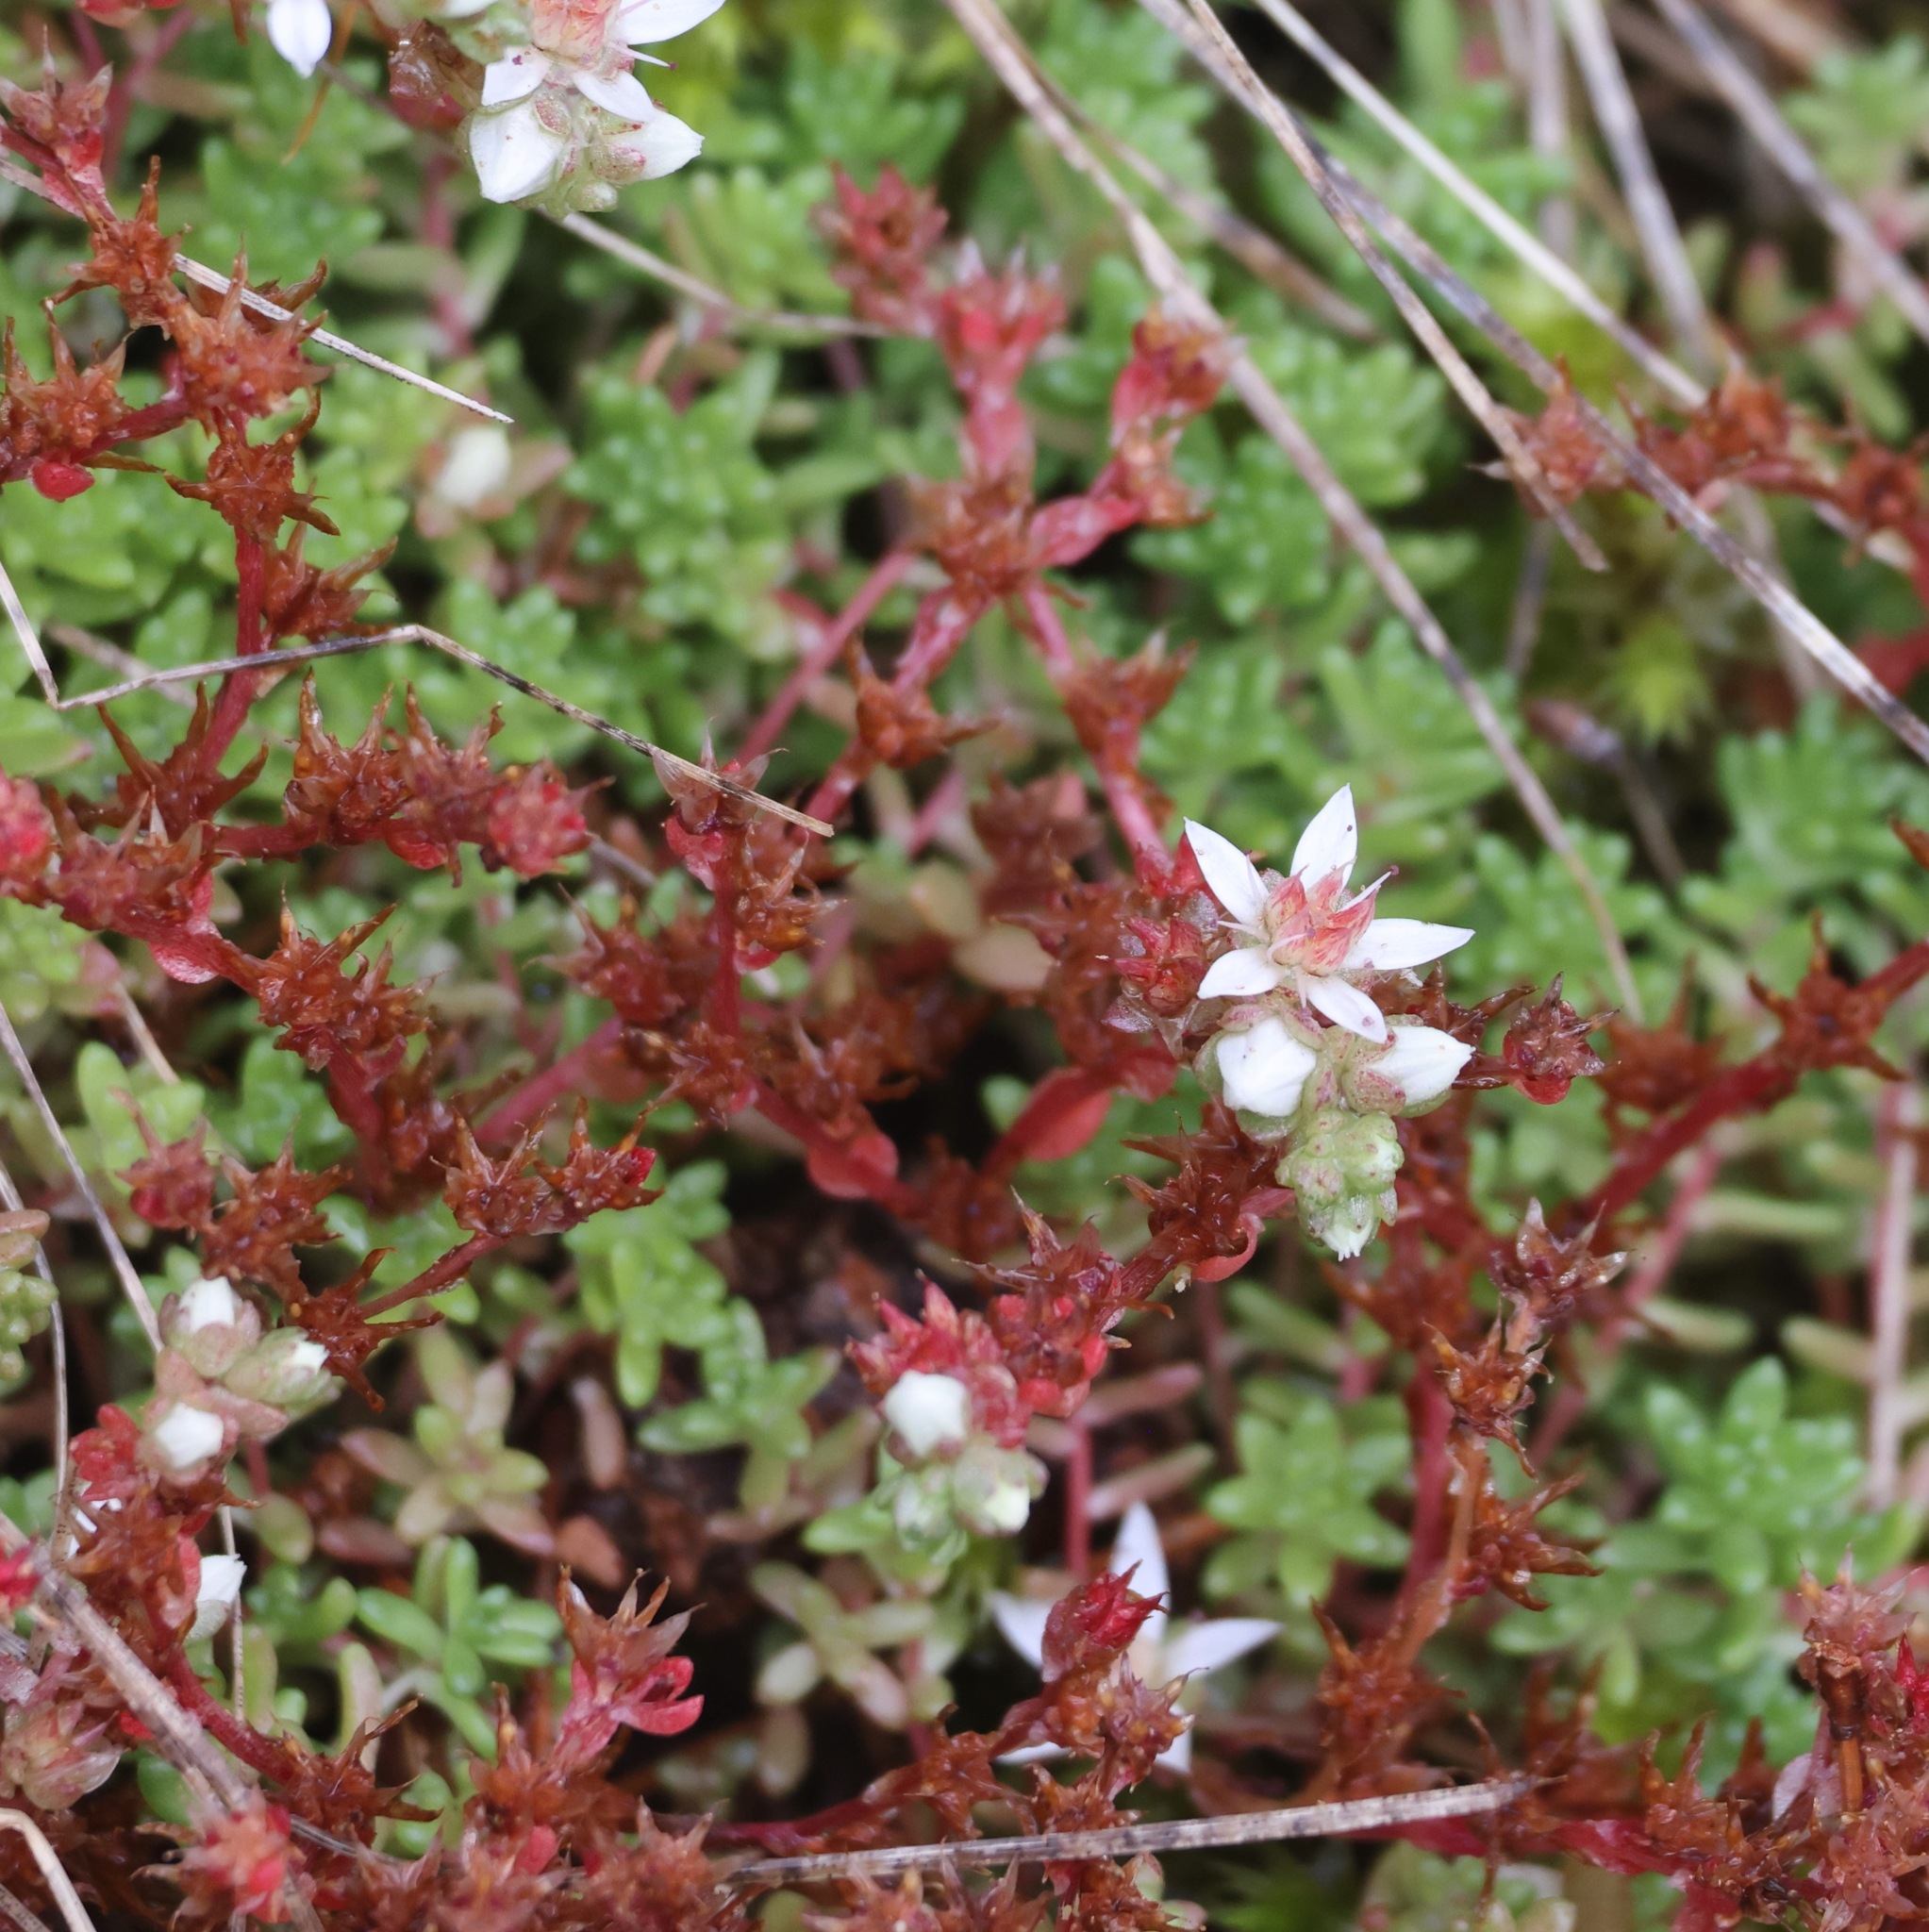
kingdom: Plantae
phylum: Tracheophyta
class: Magnoliopsida
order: Saxifragales
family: Crassulaceae
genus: Sedum
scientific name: Sedum anglicum
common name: English stonecrop
